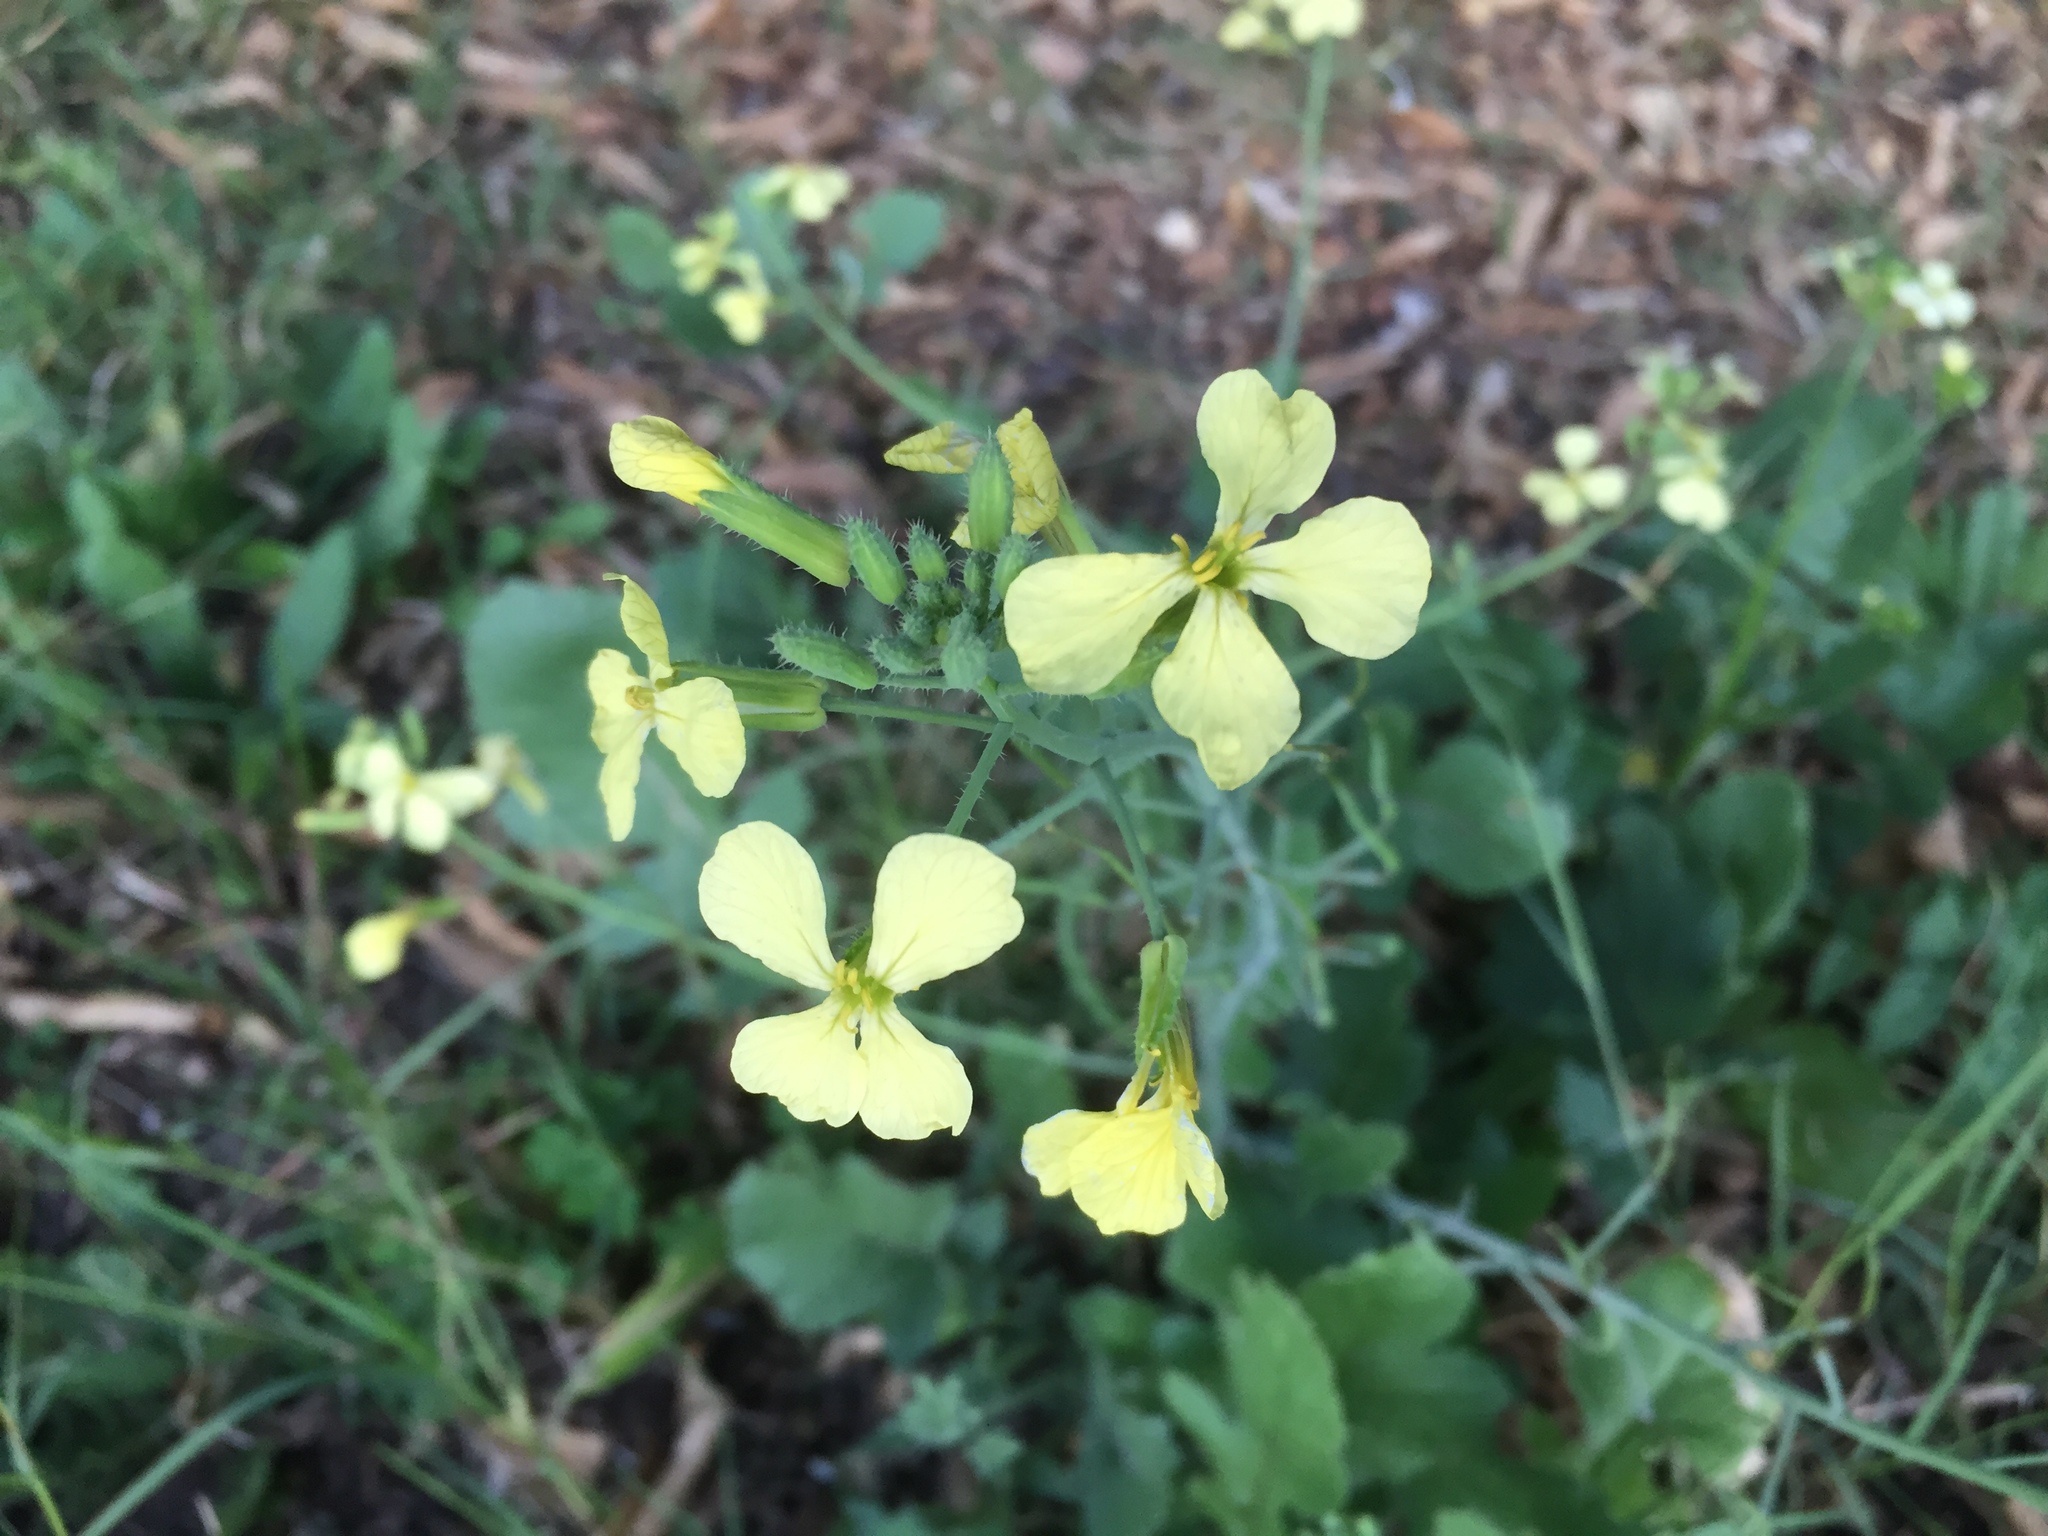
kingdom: Plantae
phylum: Tracheophyta
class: Magnoliopsida
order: Brassicales
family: Brassicaceae
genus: Raphanus
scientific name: Raphanus raphanistrum
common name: Wild radish
